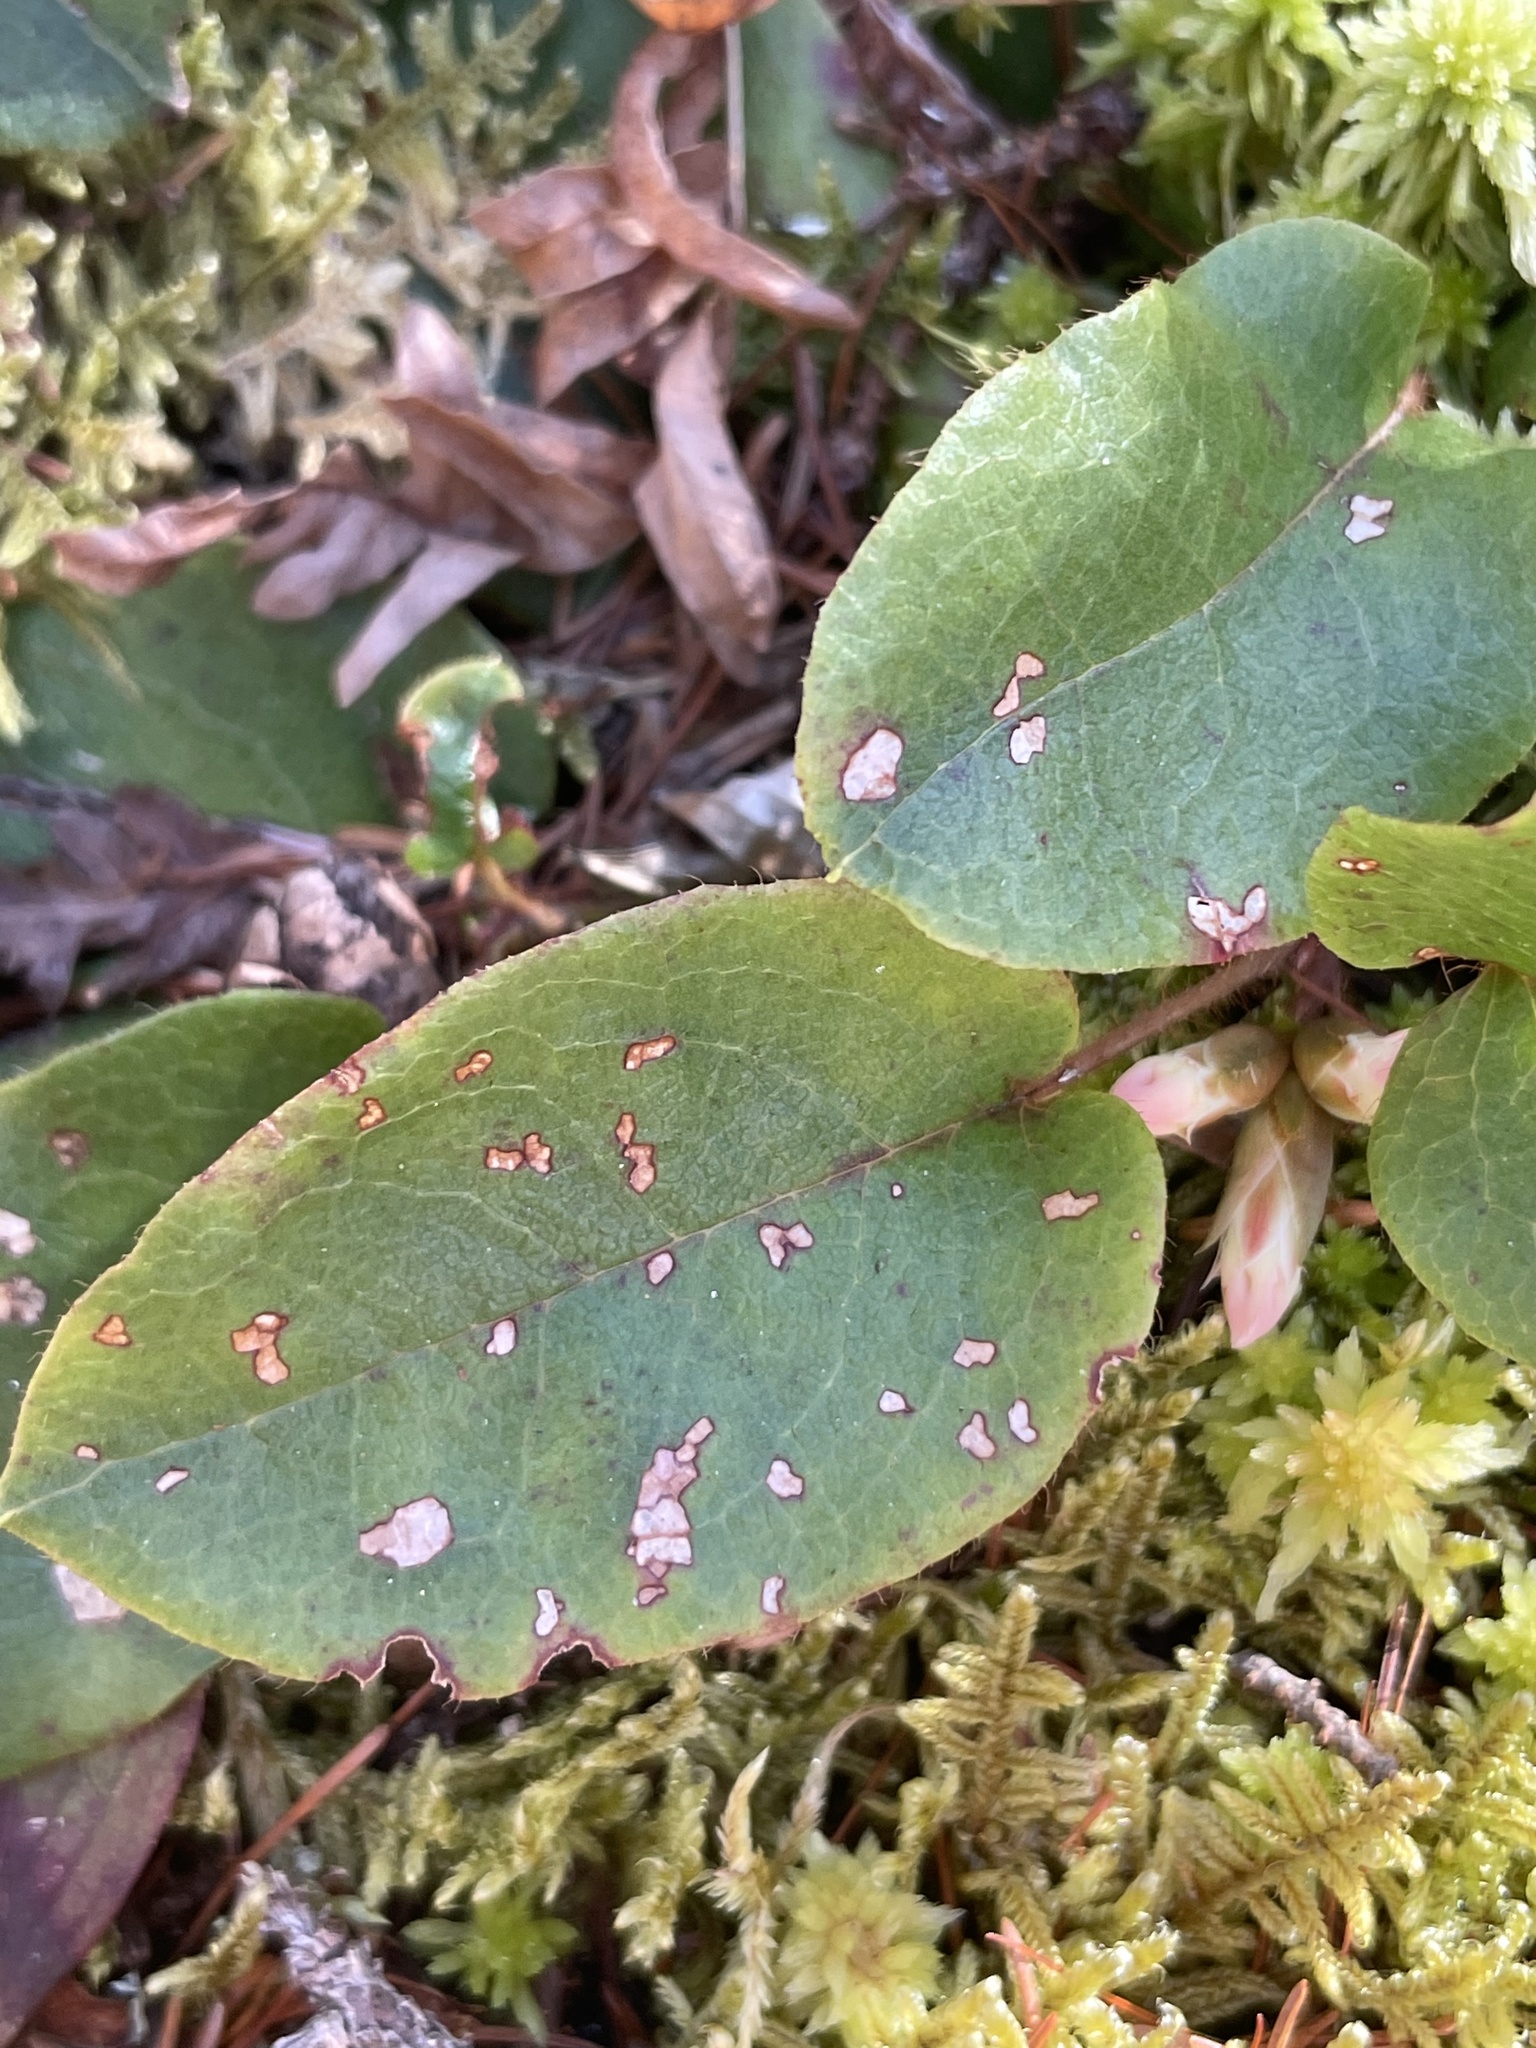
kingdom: Plantae
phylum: Tracheophyta
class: Magnoliopsida
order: Ericales
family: Ericaceae
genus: Epigaea
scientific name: Epigaea repens
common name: Gravelroot
